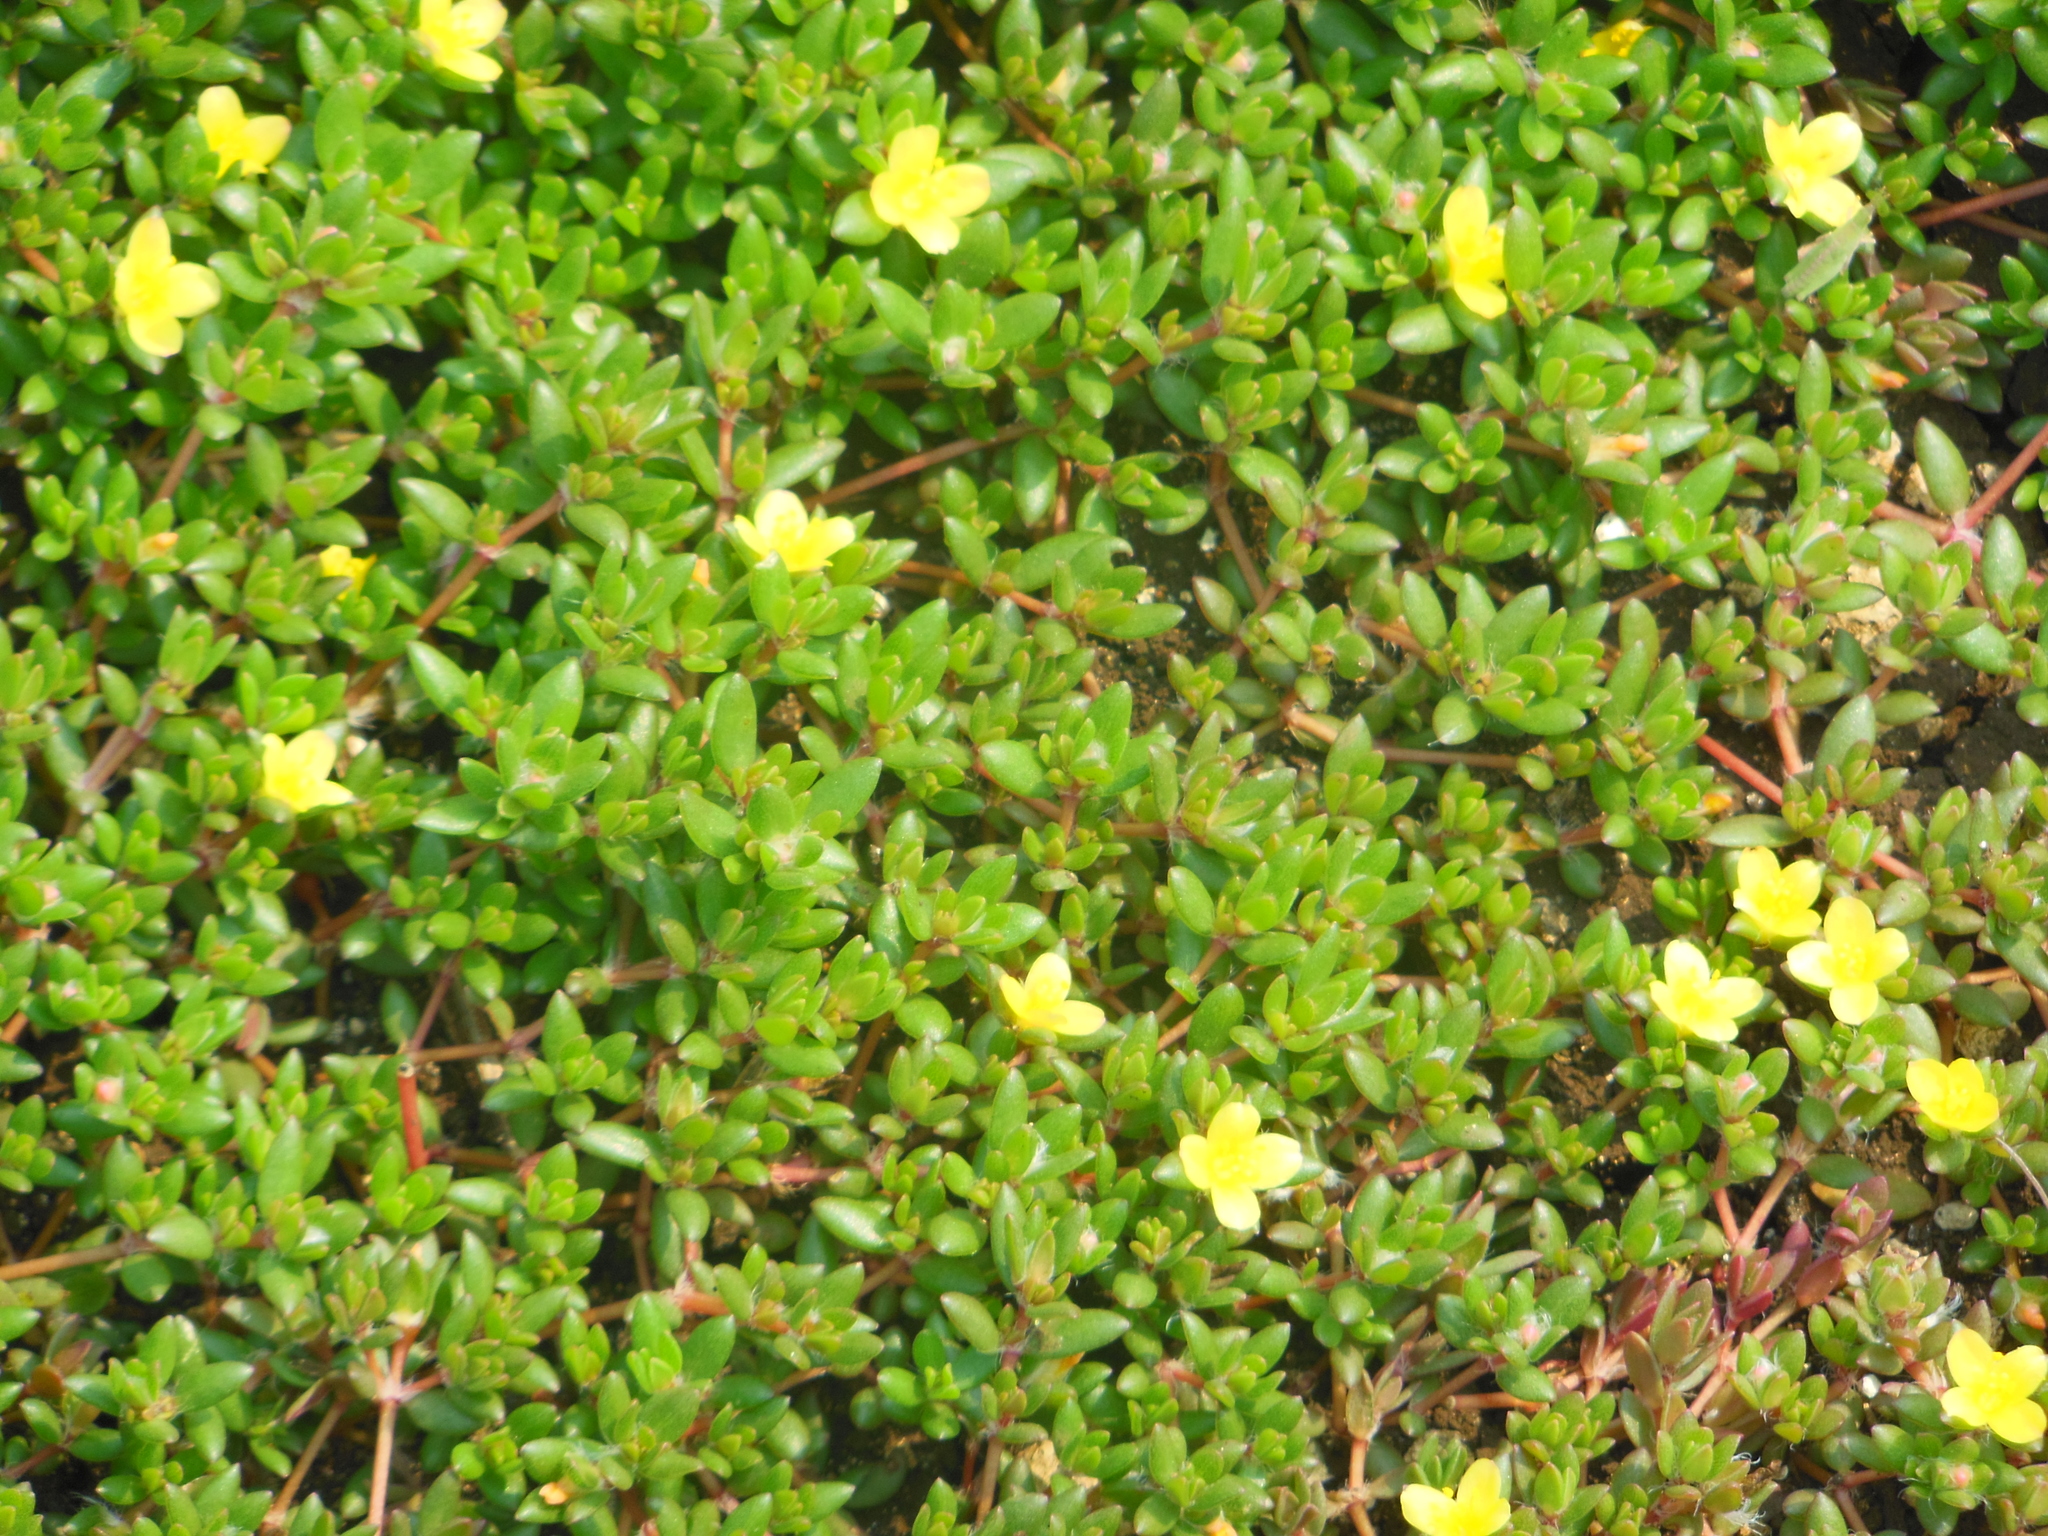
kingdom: Plantae
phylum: Tracheophyta
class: Magnoliopsida
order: Caryophyllales
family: Portulacaceae
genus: Portulaca
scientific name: Portulaca quadrifida
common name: Chickenweed
